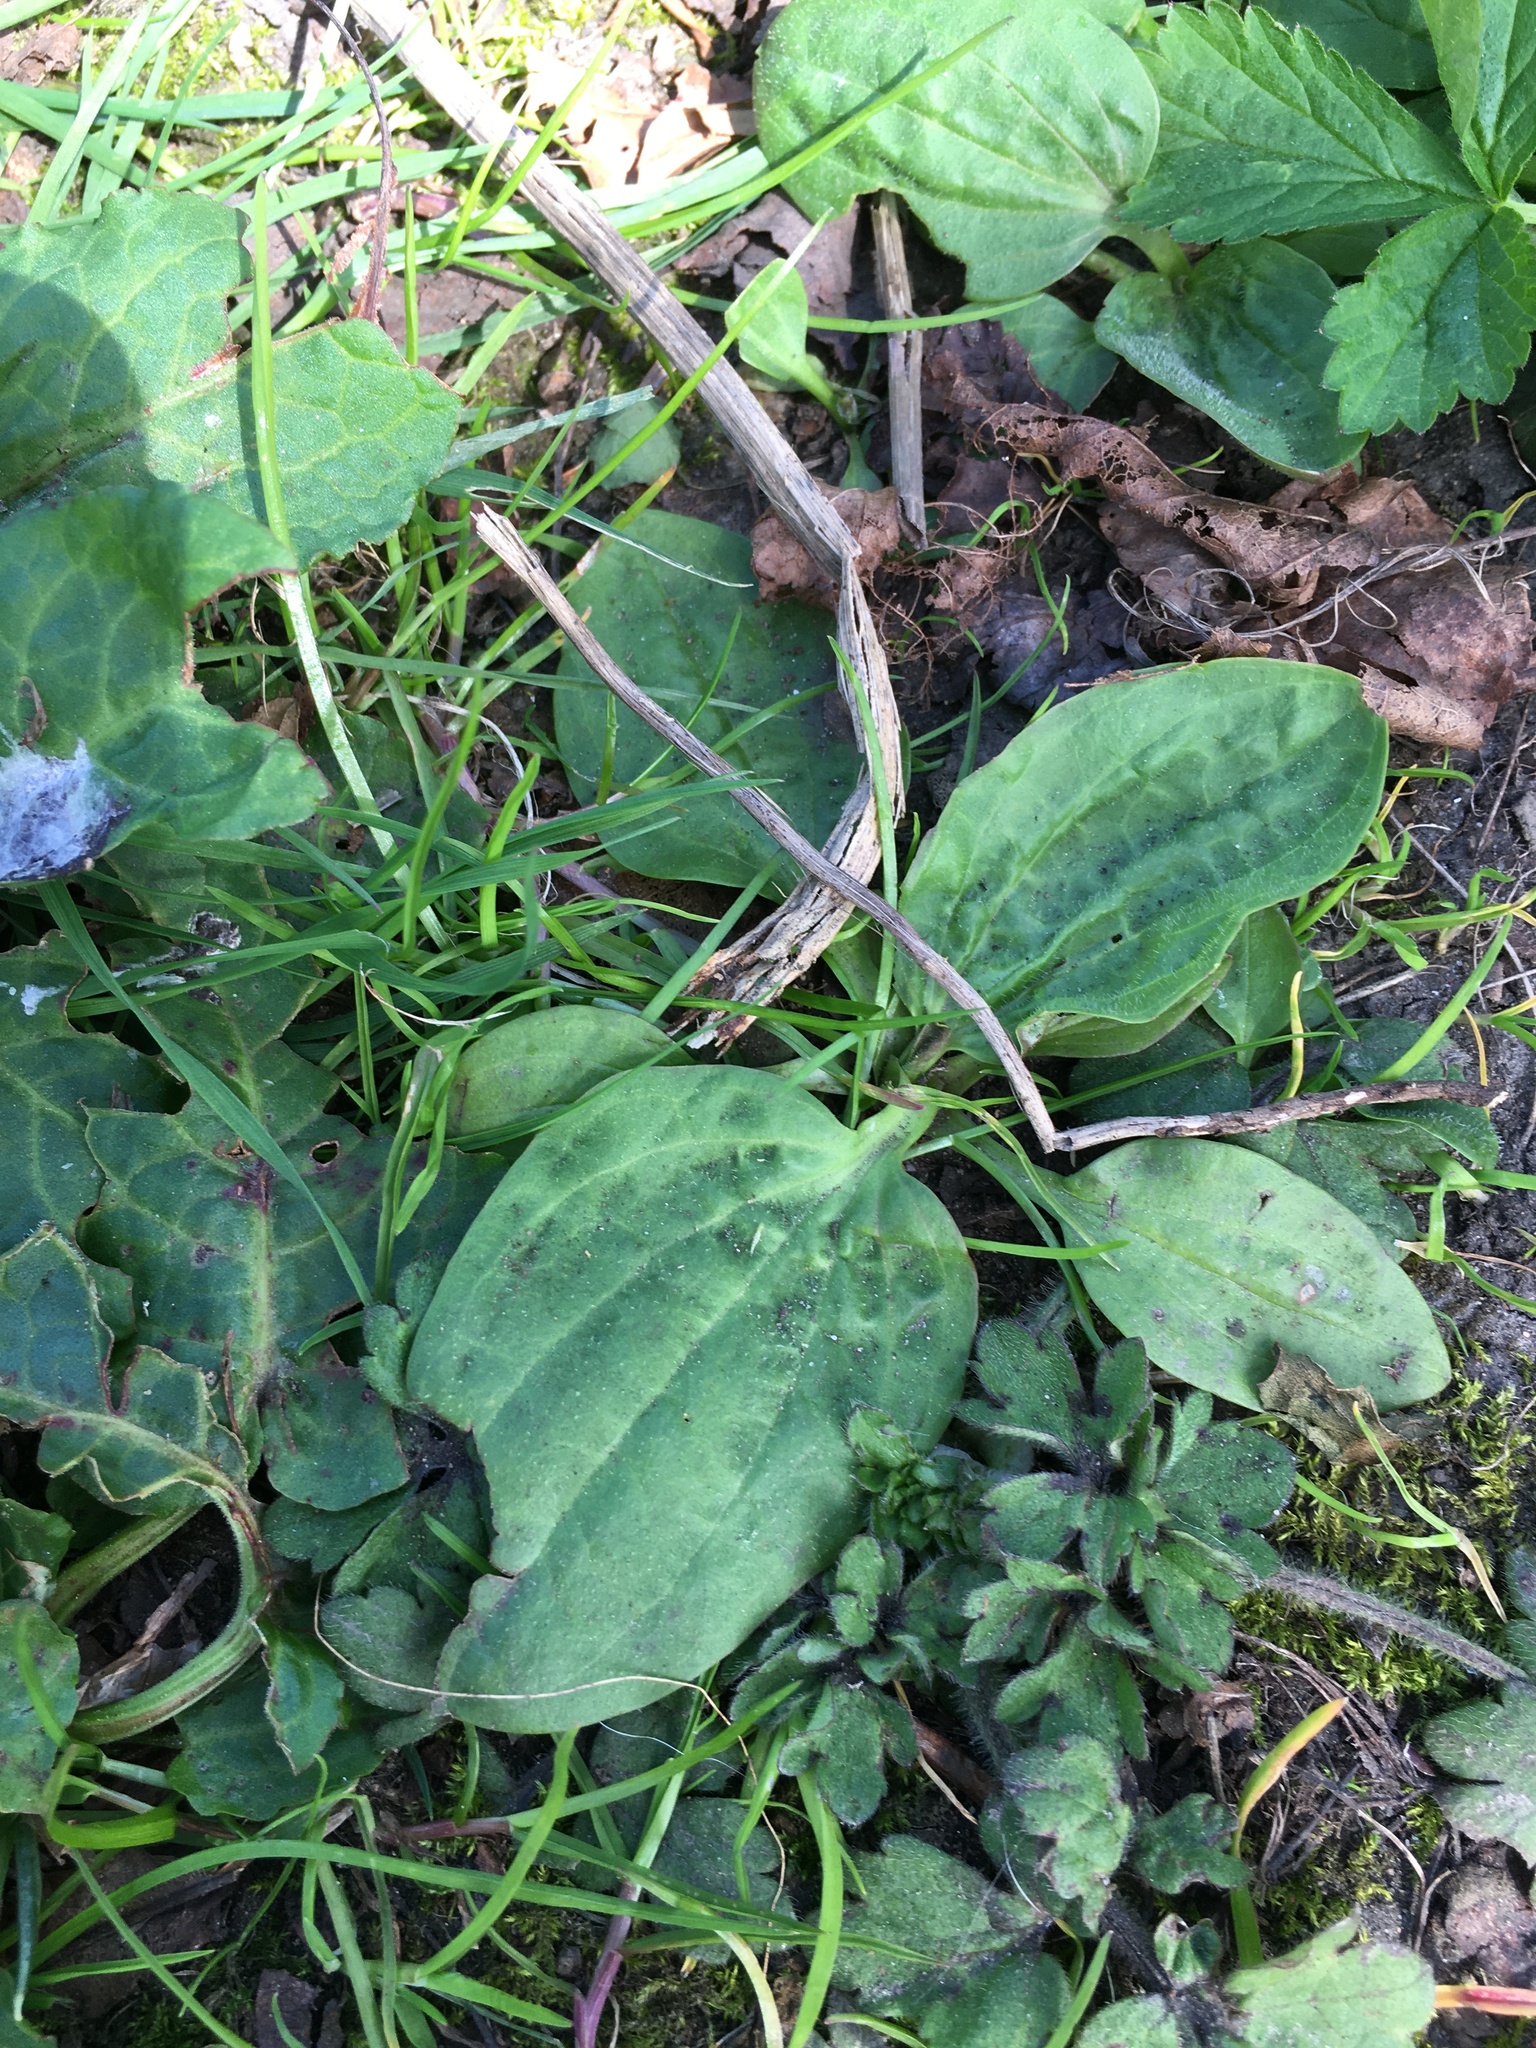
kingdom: Plantae
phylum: Tracheophyta
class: Magnoliopsida
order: Lamiales
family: Plantaginaceae
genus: Plantago
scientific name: Plantago major
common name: Common plantain
